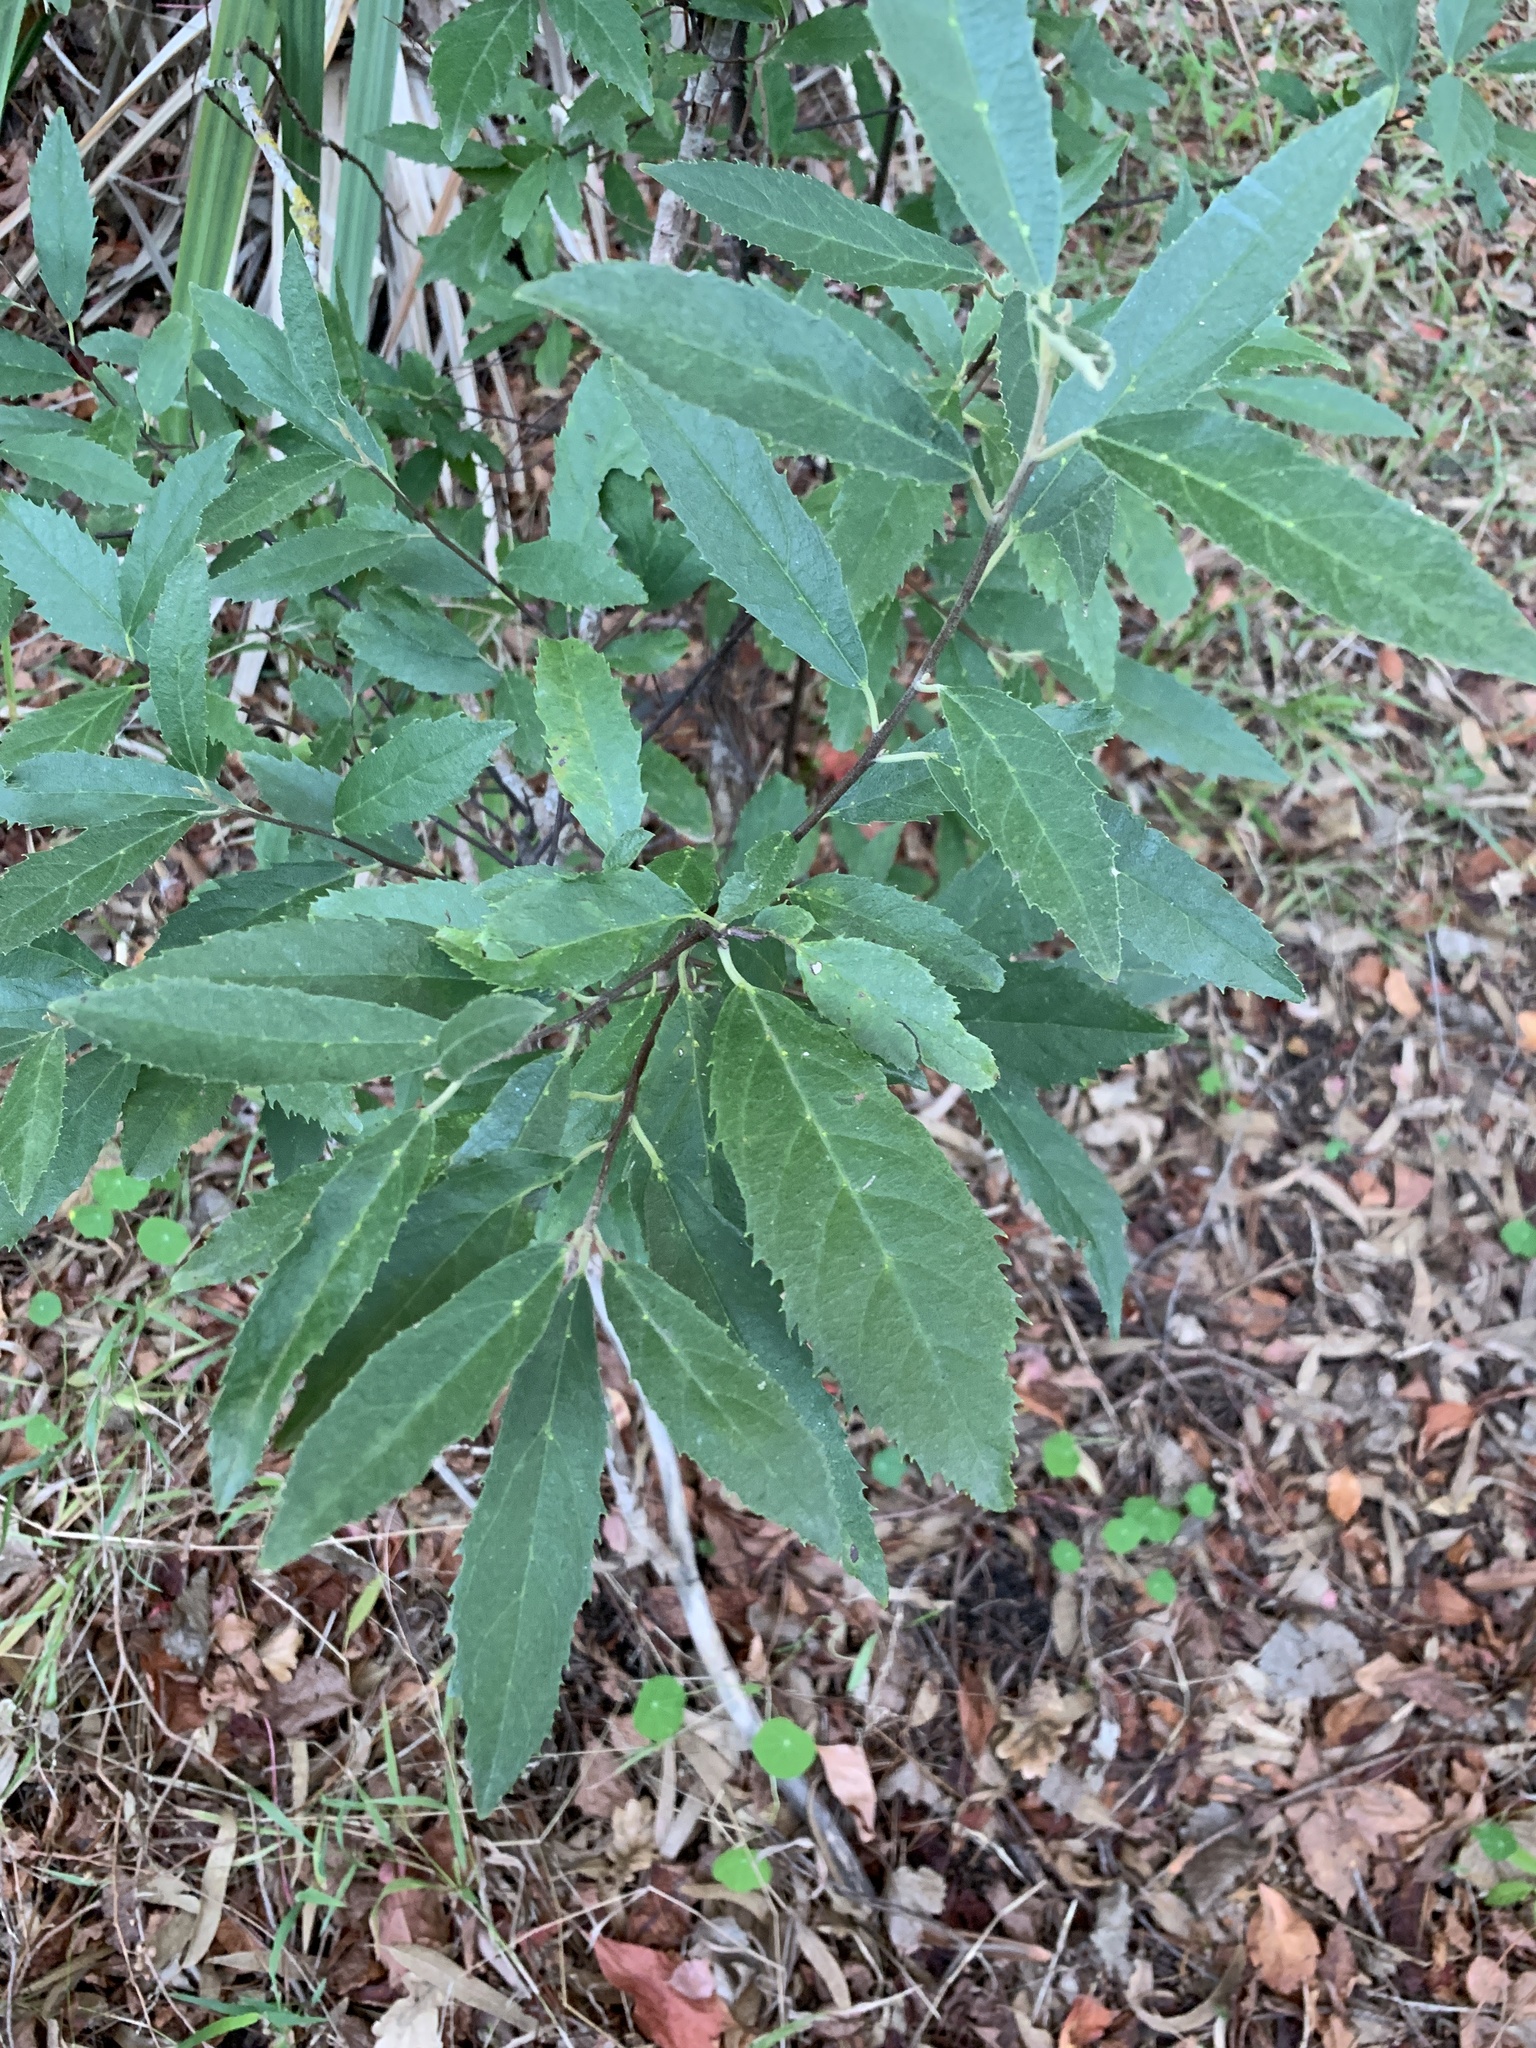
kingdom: Plantae
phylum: Tracheophyta
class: Magnoliopsida
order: Malpighiales
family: Achariaceae
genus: Kiggelaria
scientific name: Kiggelaria africana
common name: Wild peach
